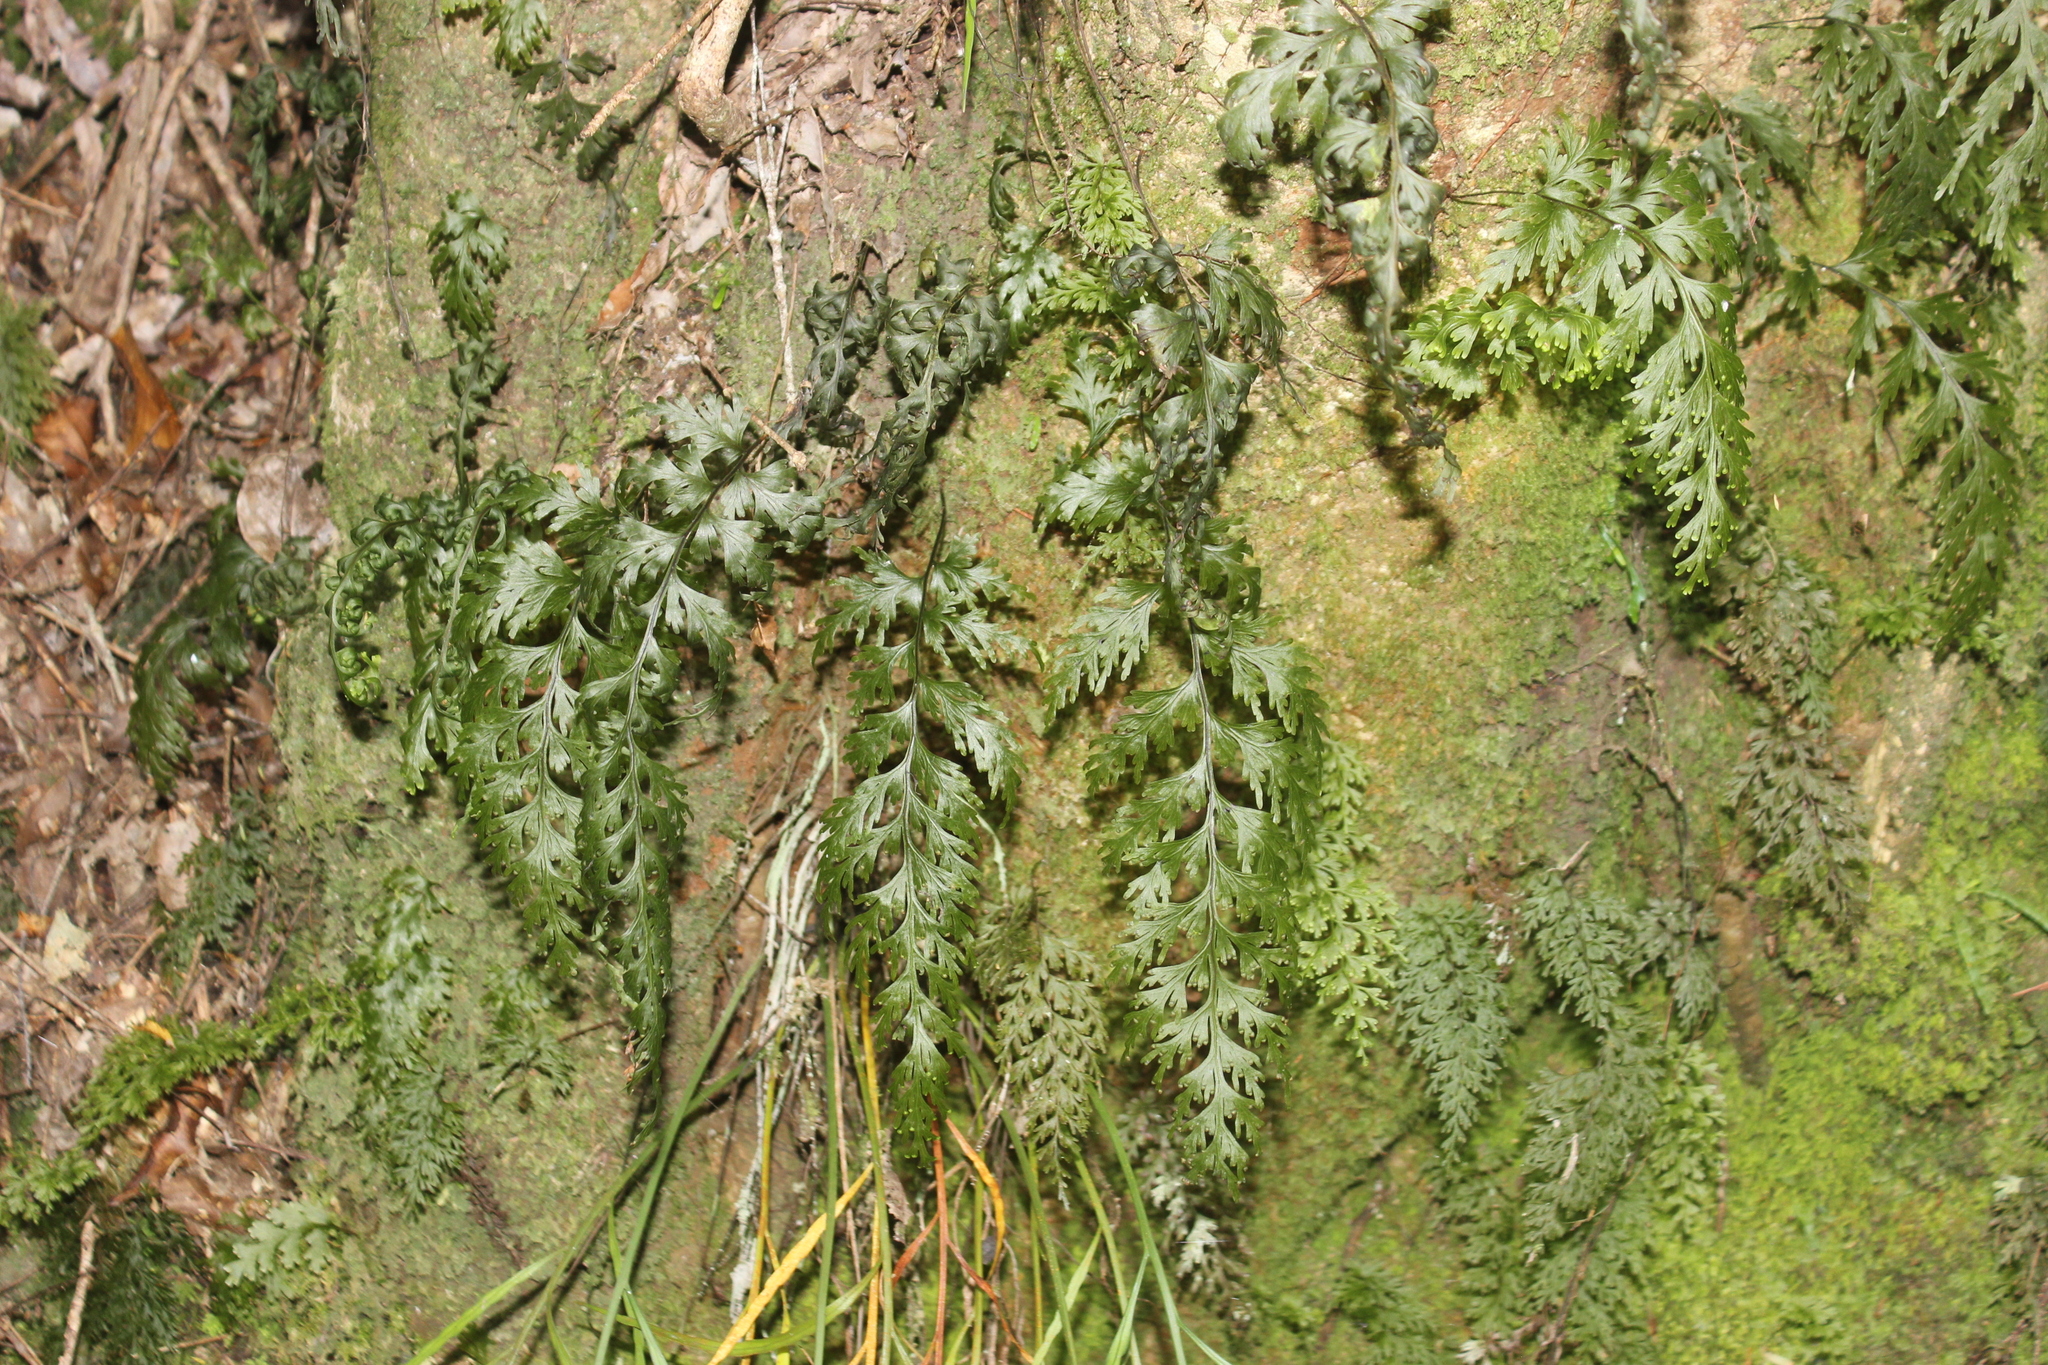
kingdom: Plantae
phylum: Tracheophyta
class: Polypodiopsida
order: Hymenophyllales
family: Hymenophyllaceae
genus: Hymenophyllum
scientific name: Hymenophyllum dilatatum
